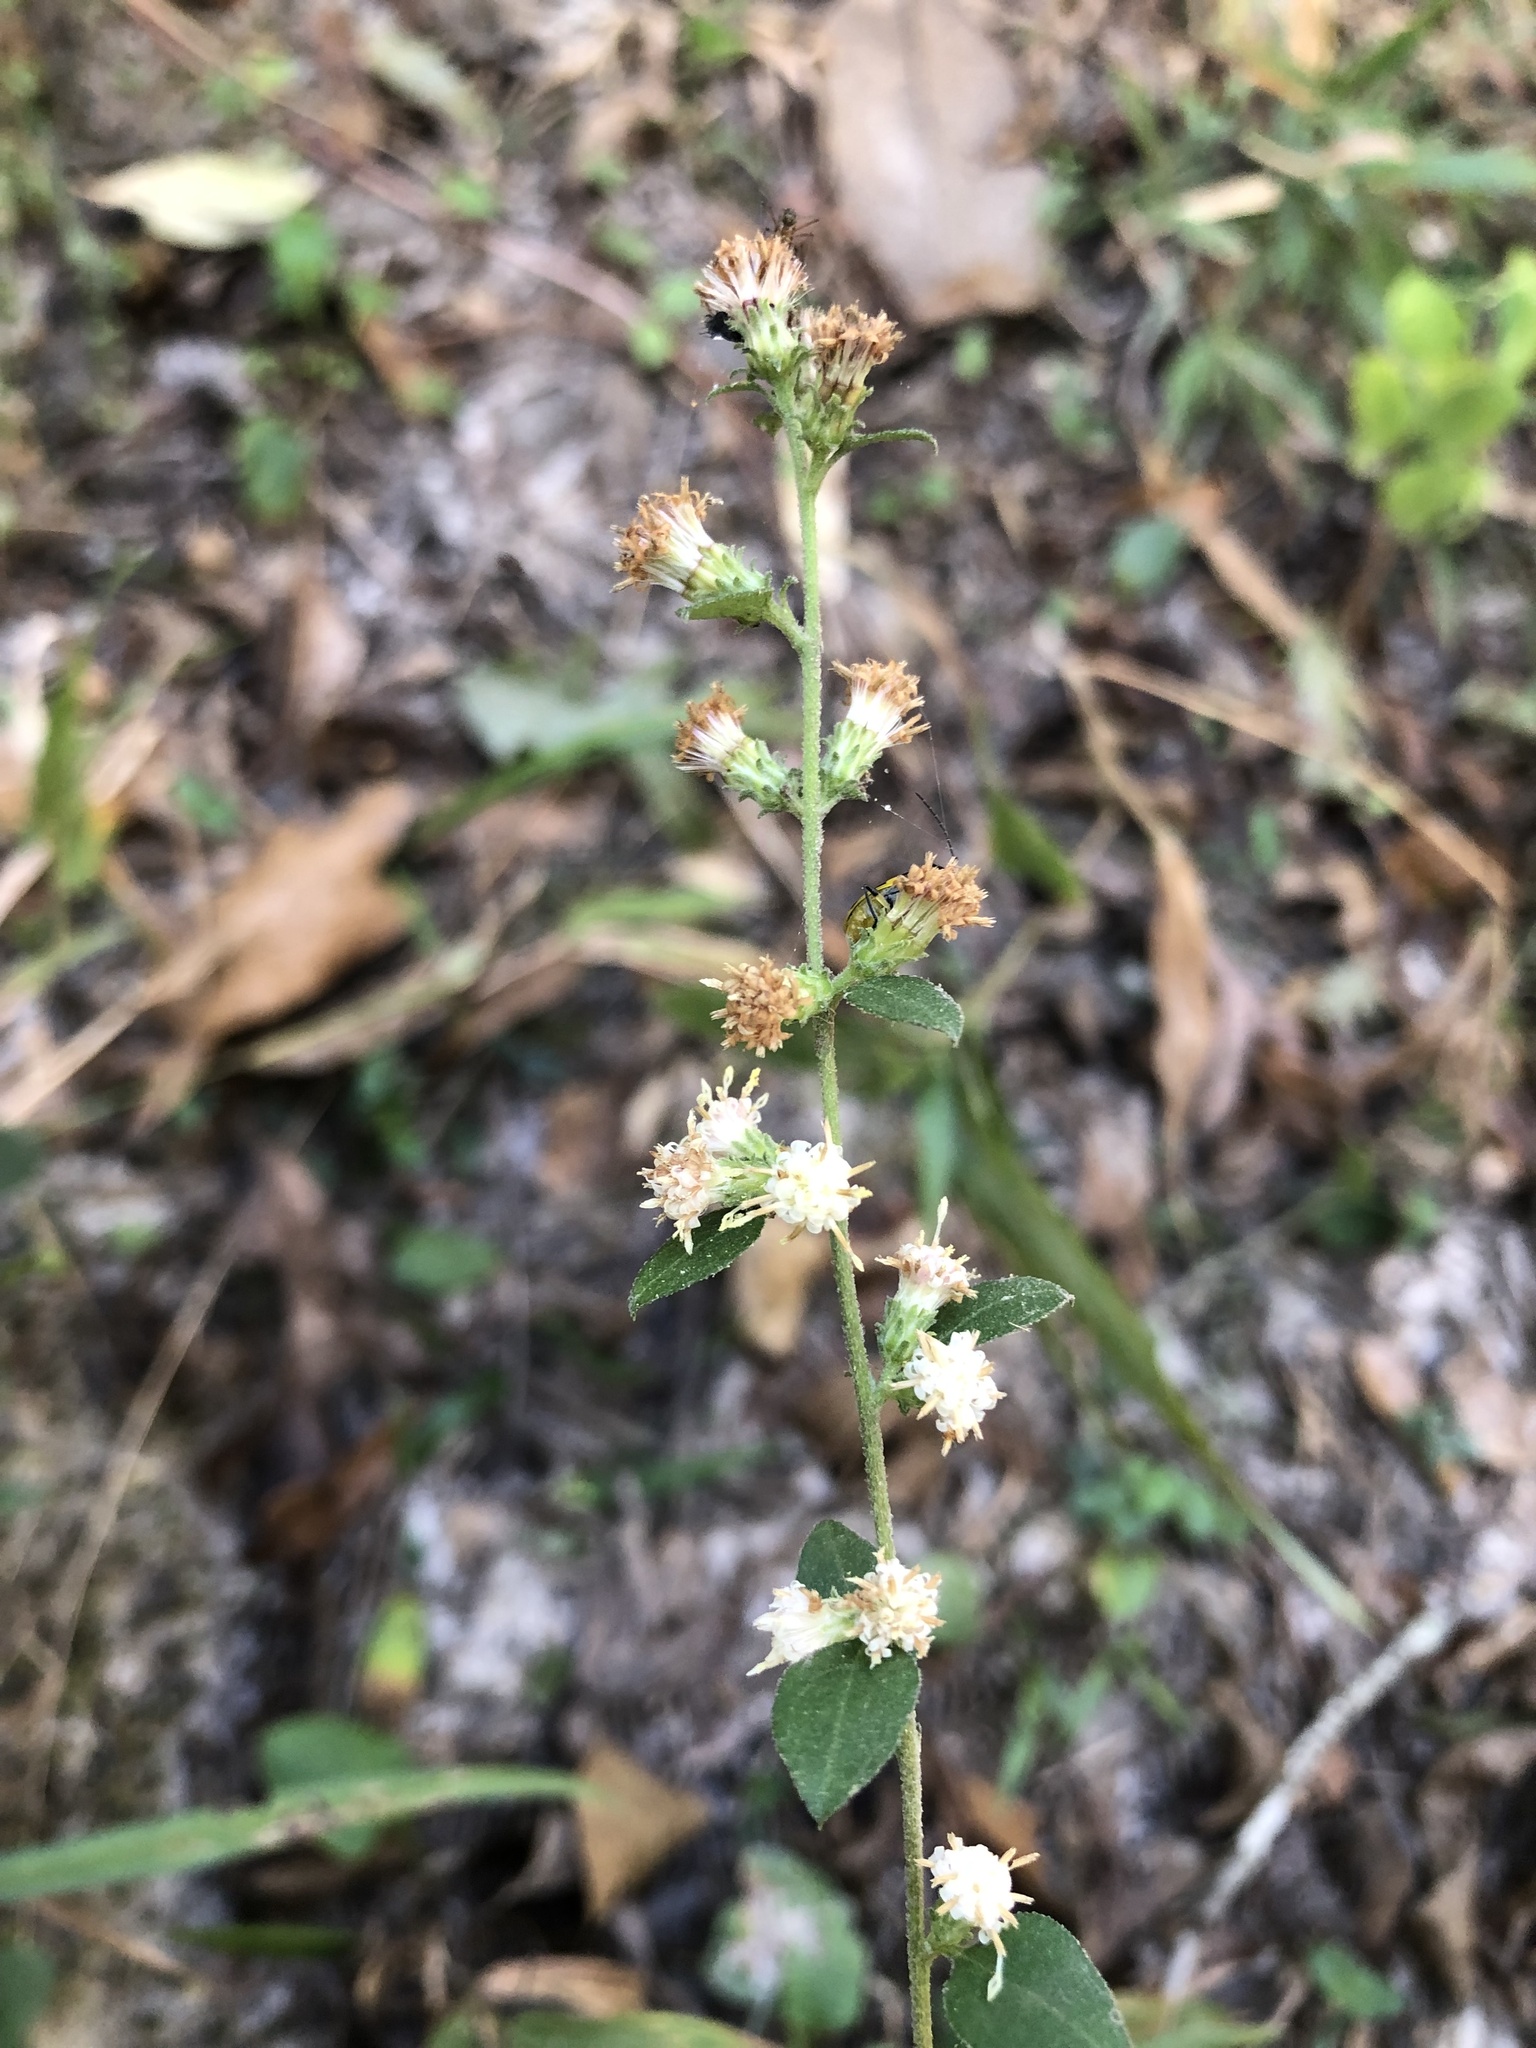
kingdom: Plantae
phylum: Tracheophyta
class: Magnoliopsida
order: Asterales
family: Asteraceae
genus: Solidago
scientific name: Solidago discoidea
